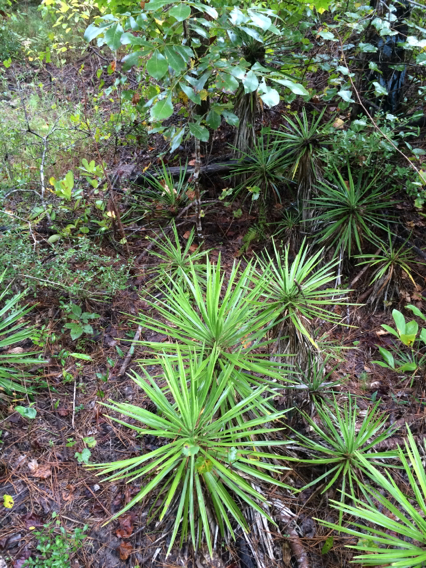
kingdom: Plantae
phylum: Tracheophyta
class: Liliopsida
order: Asparagales
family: Asparagaceae
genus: Yucca
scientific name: Yucca aloifolia
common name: Aloe yucca
